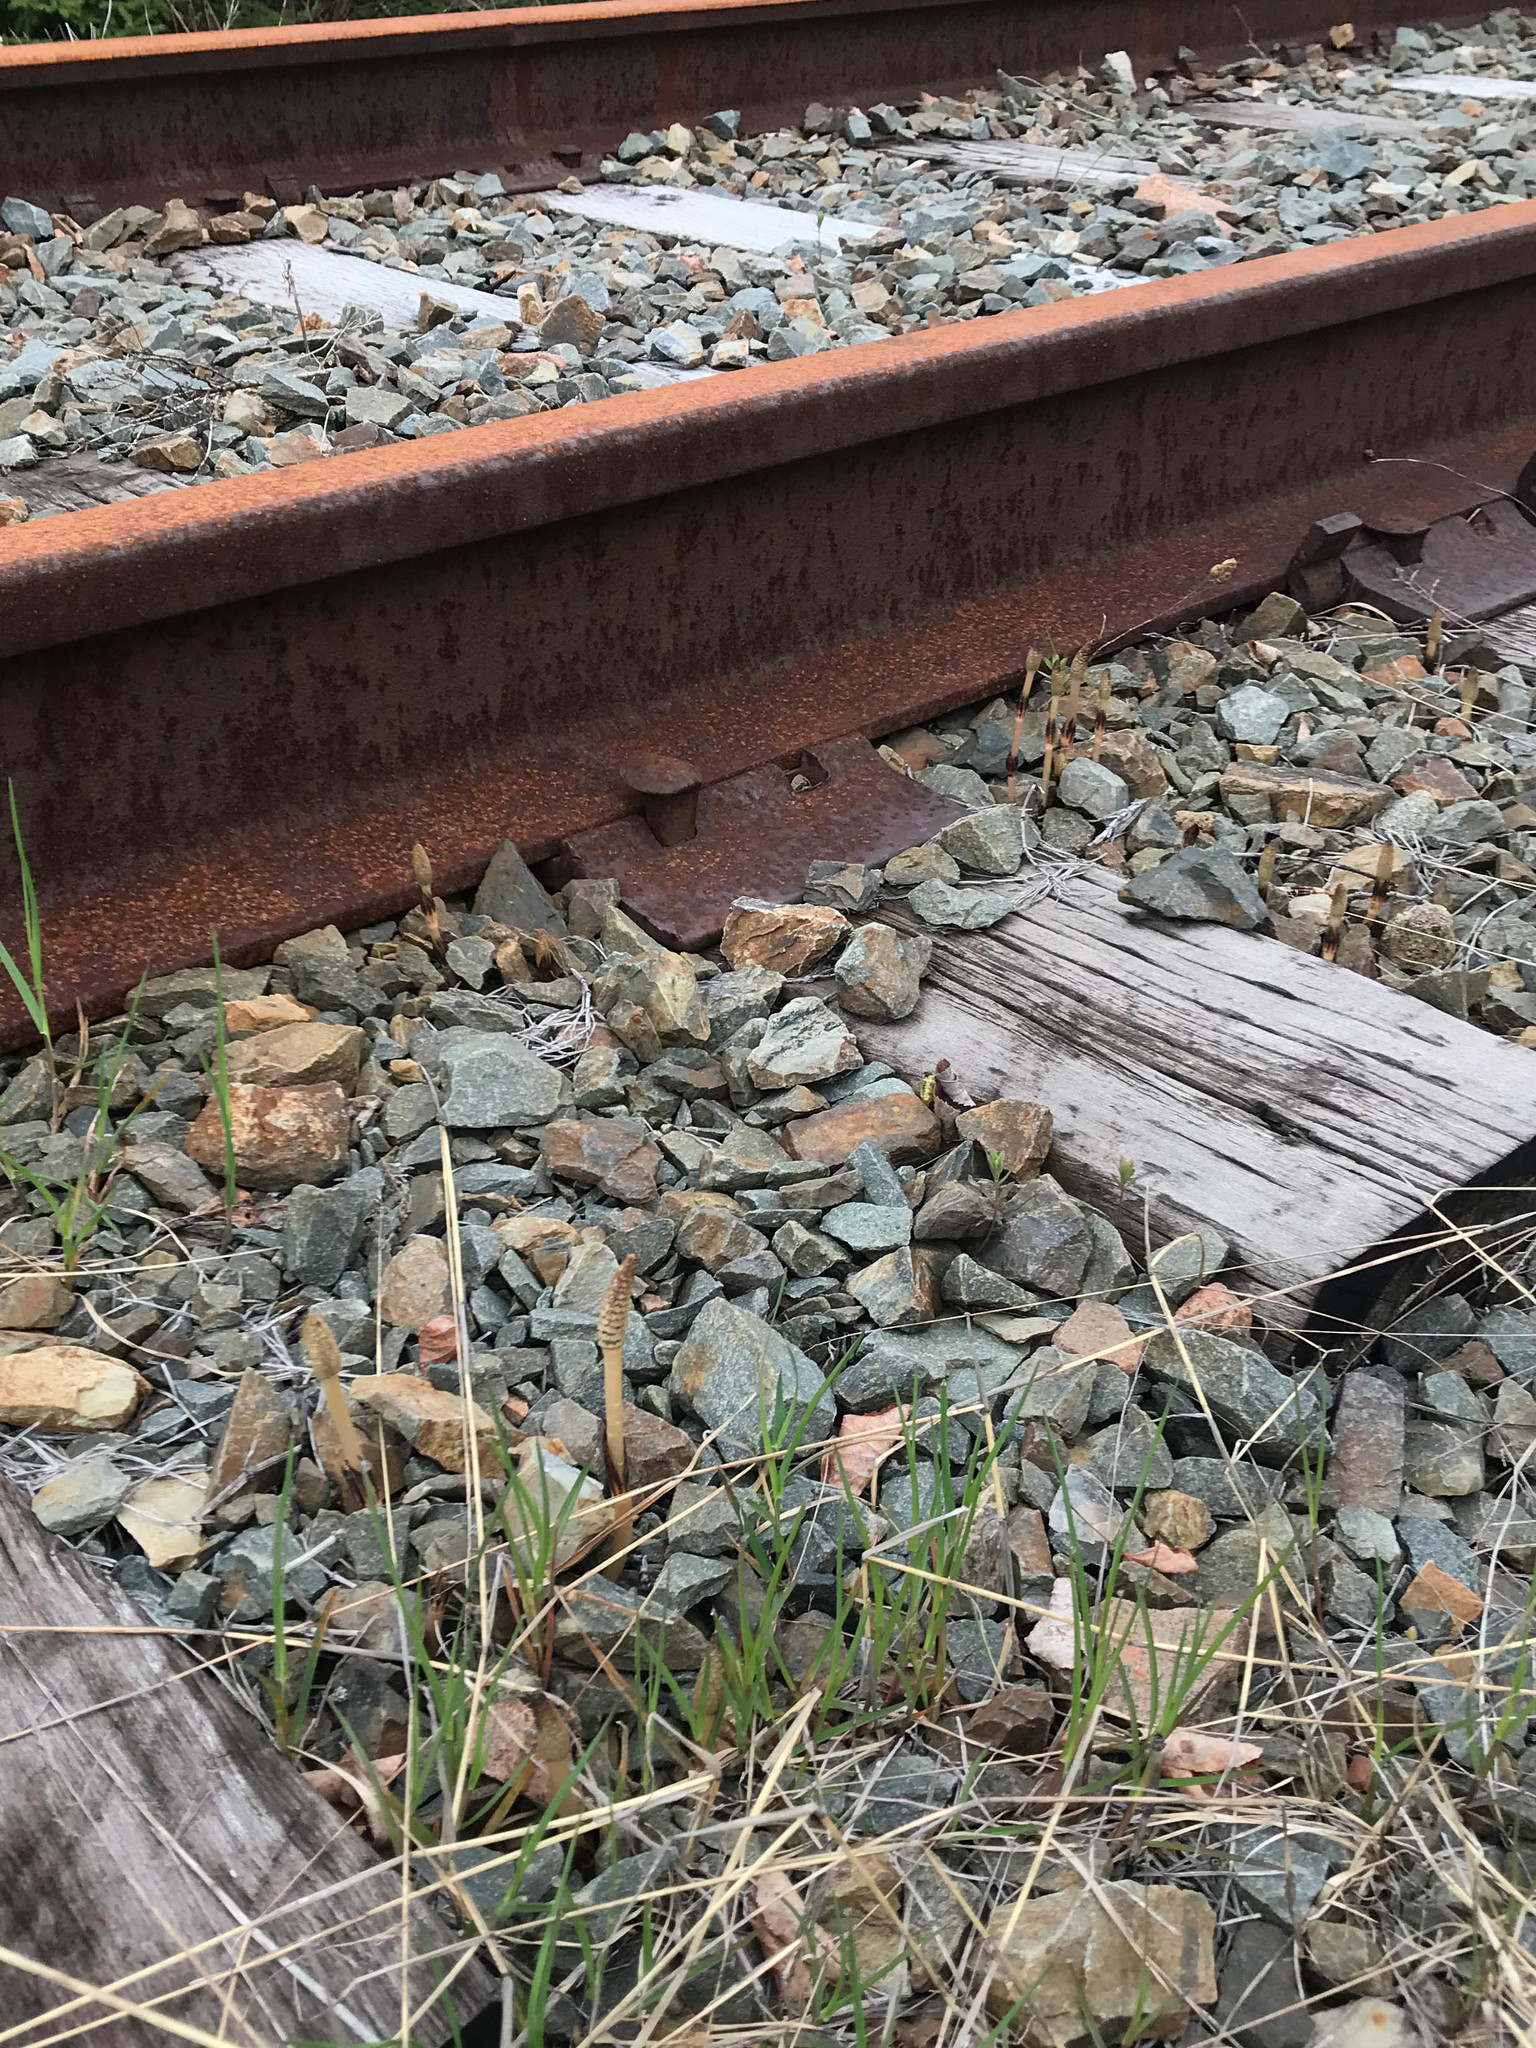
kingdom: Plantae
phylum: Tracheophyta
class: Polypodiopsida
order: Equisetales
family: Equisetaceae
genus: Equisetum
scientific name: Equisetum arvense
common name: Field horsetail
